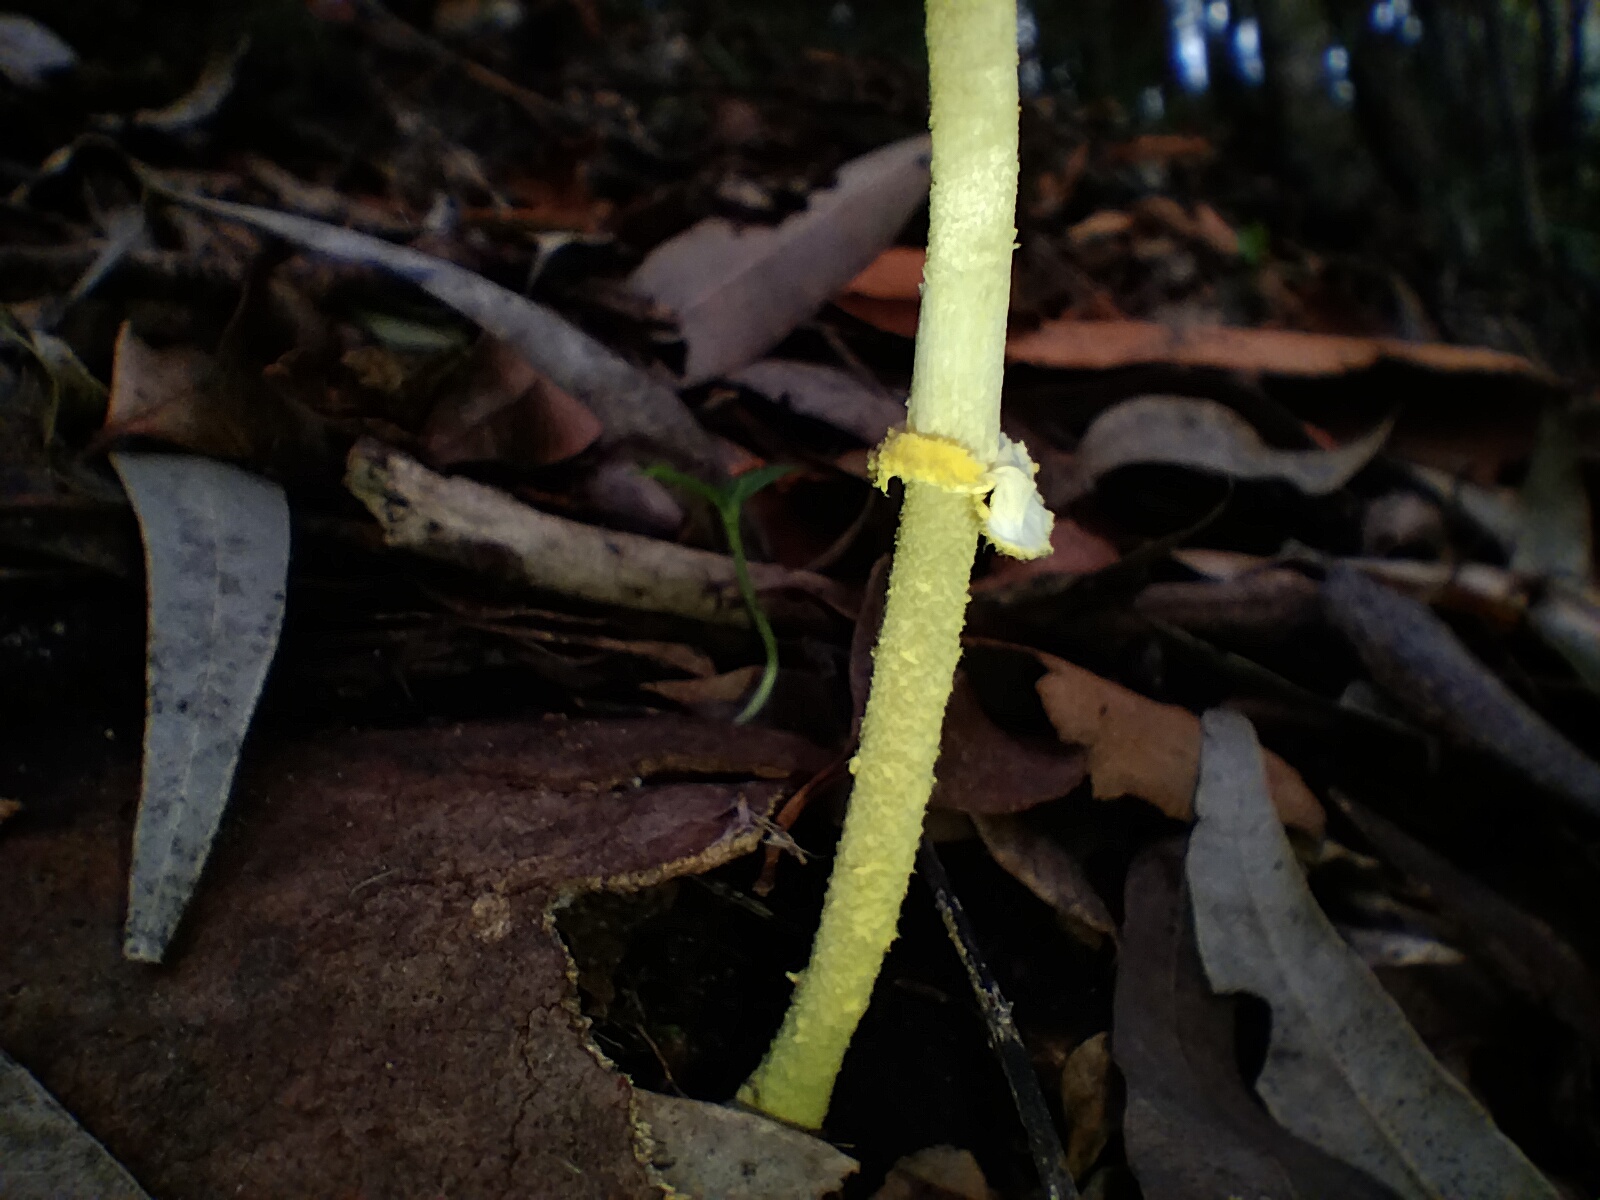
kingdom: Fungi
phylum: Basidiomycota
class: Agaricomycetes
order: Agaricales
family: Agaricaceae
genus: Leucocoprinus
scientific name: Leucocoprinus fragilissimus
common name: Fragile dapperling
